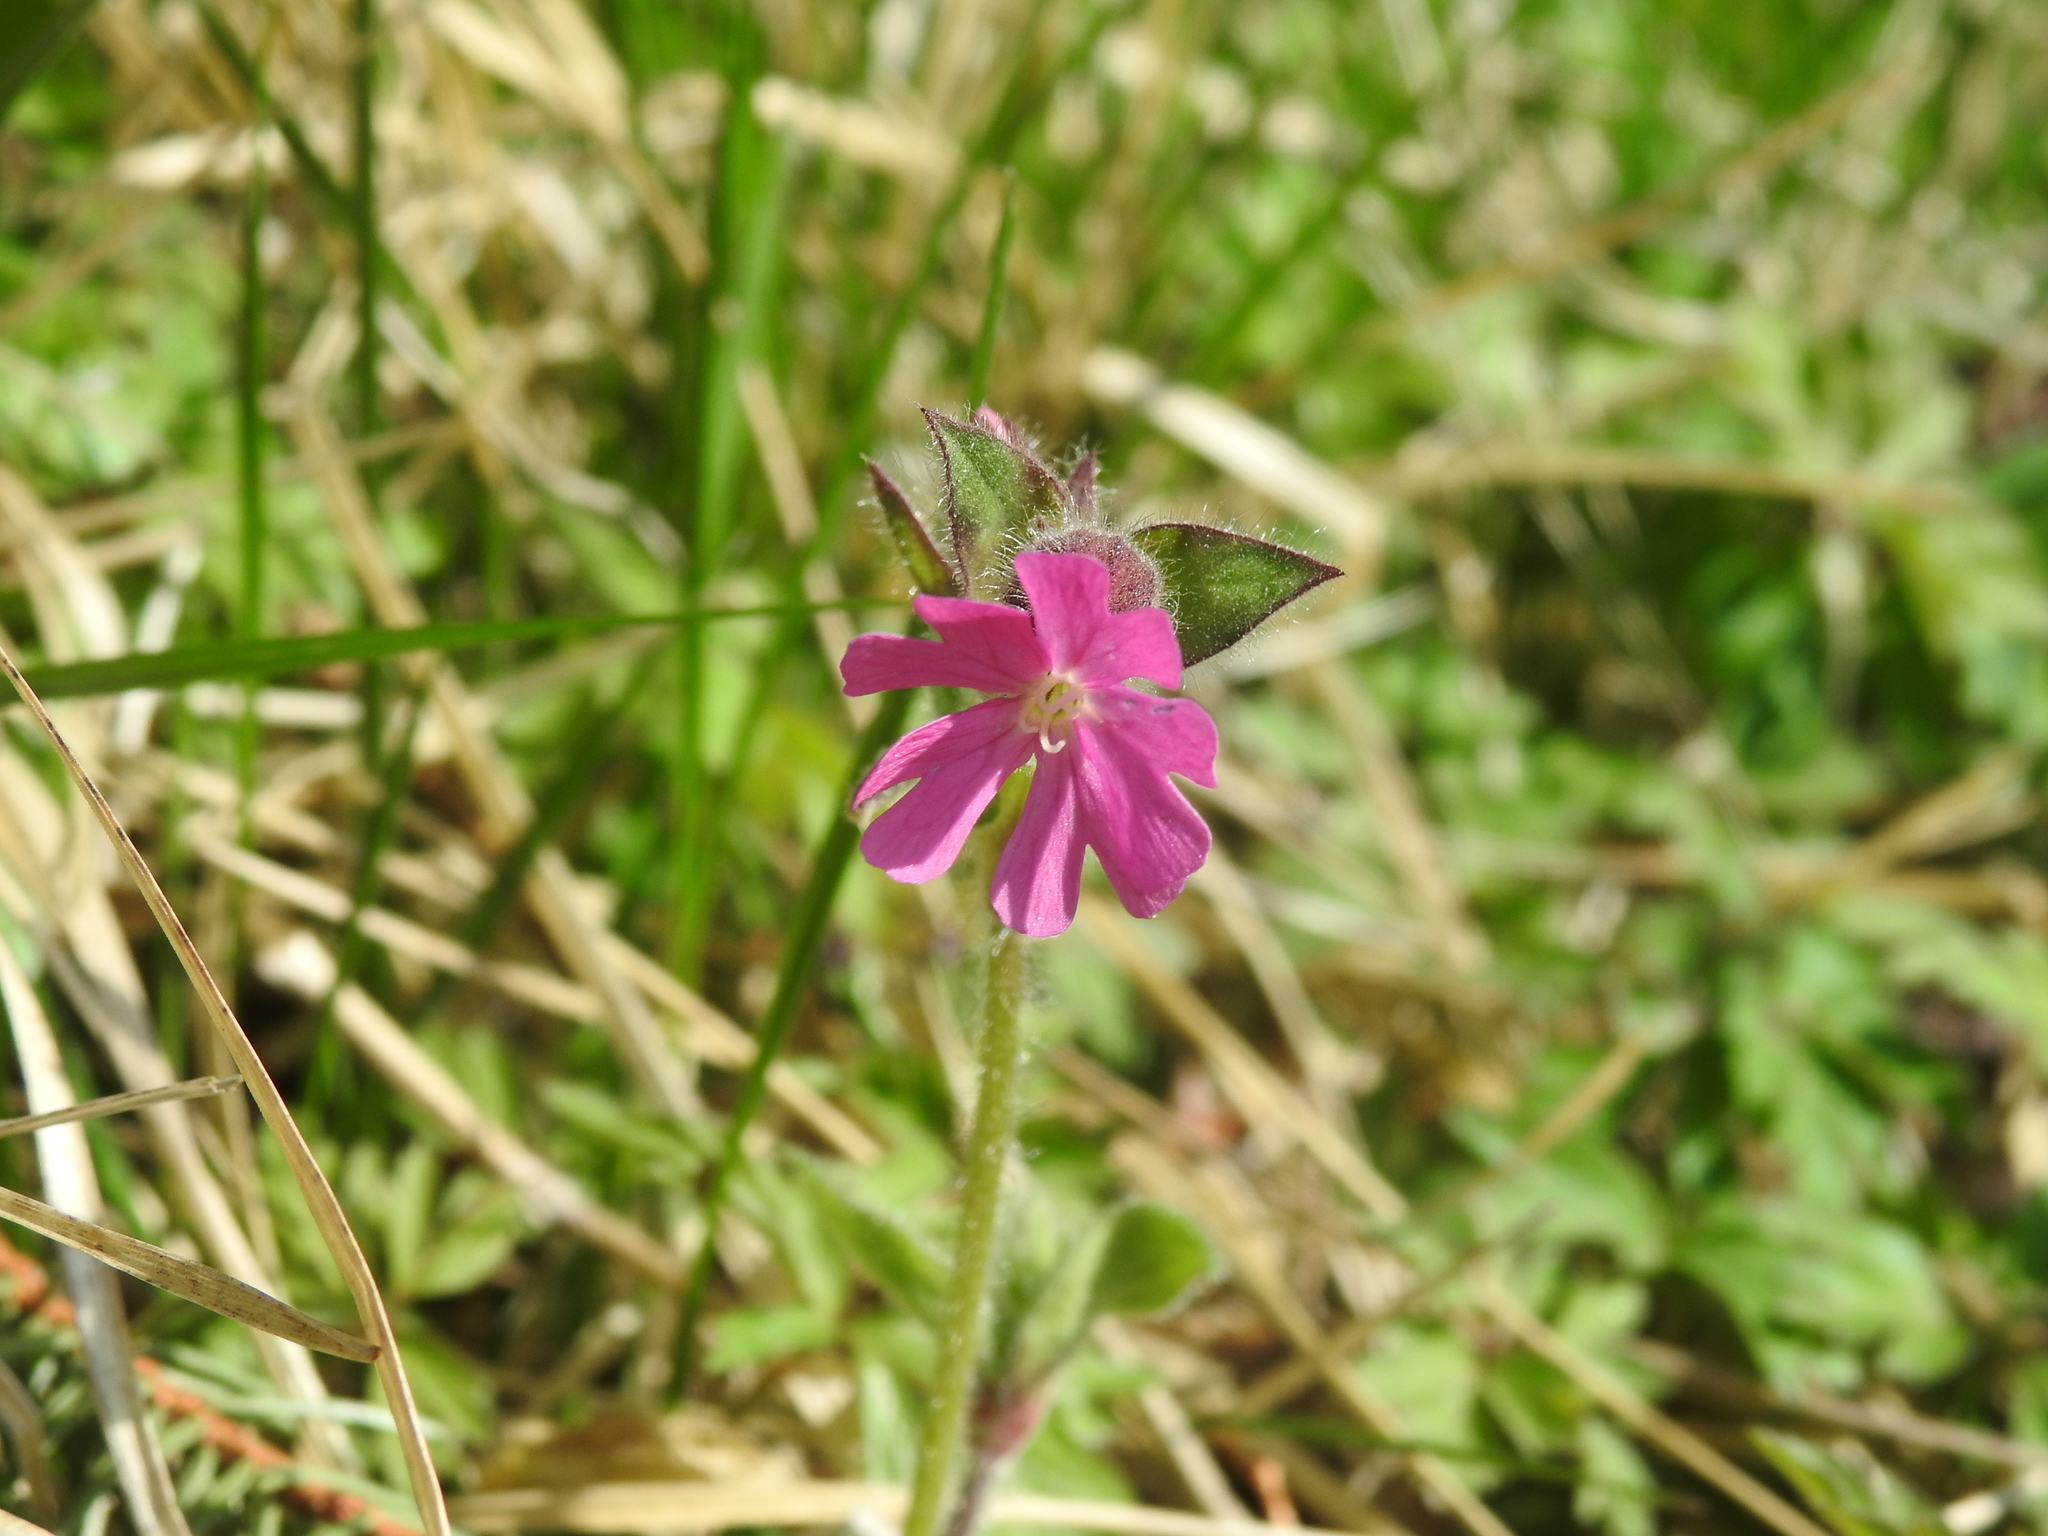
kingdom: Plantae
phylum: Tracheophyta
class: Magnoliopsida
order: Caryophyllales
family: Caryophyllaceae
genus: Silene
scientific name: Silene dioica
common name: Red campion
